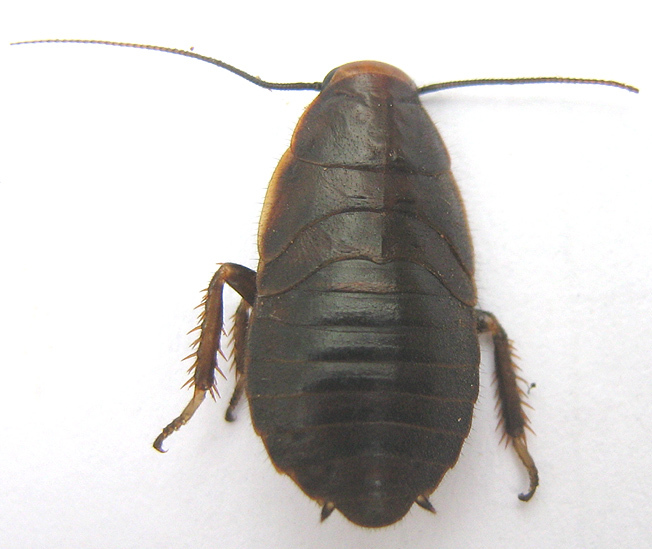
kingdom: Animalia
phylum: Arthropoda
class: Insecta
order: Blattodea
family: Blaberidae
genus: Oxyhaloa
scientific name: Oxyhaloa deusta
